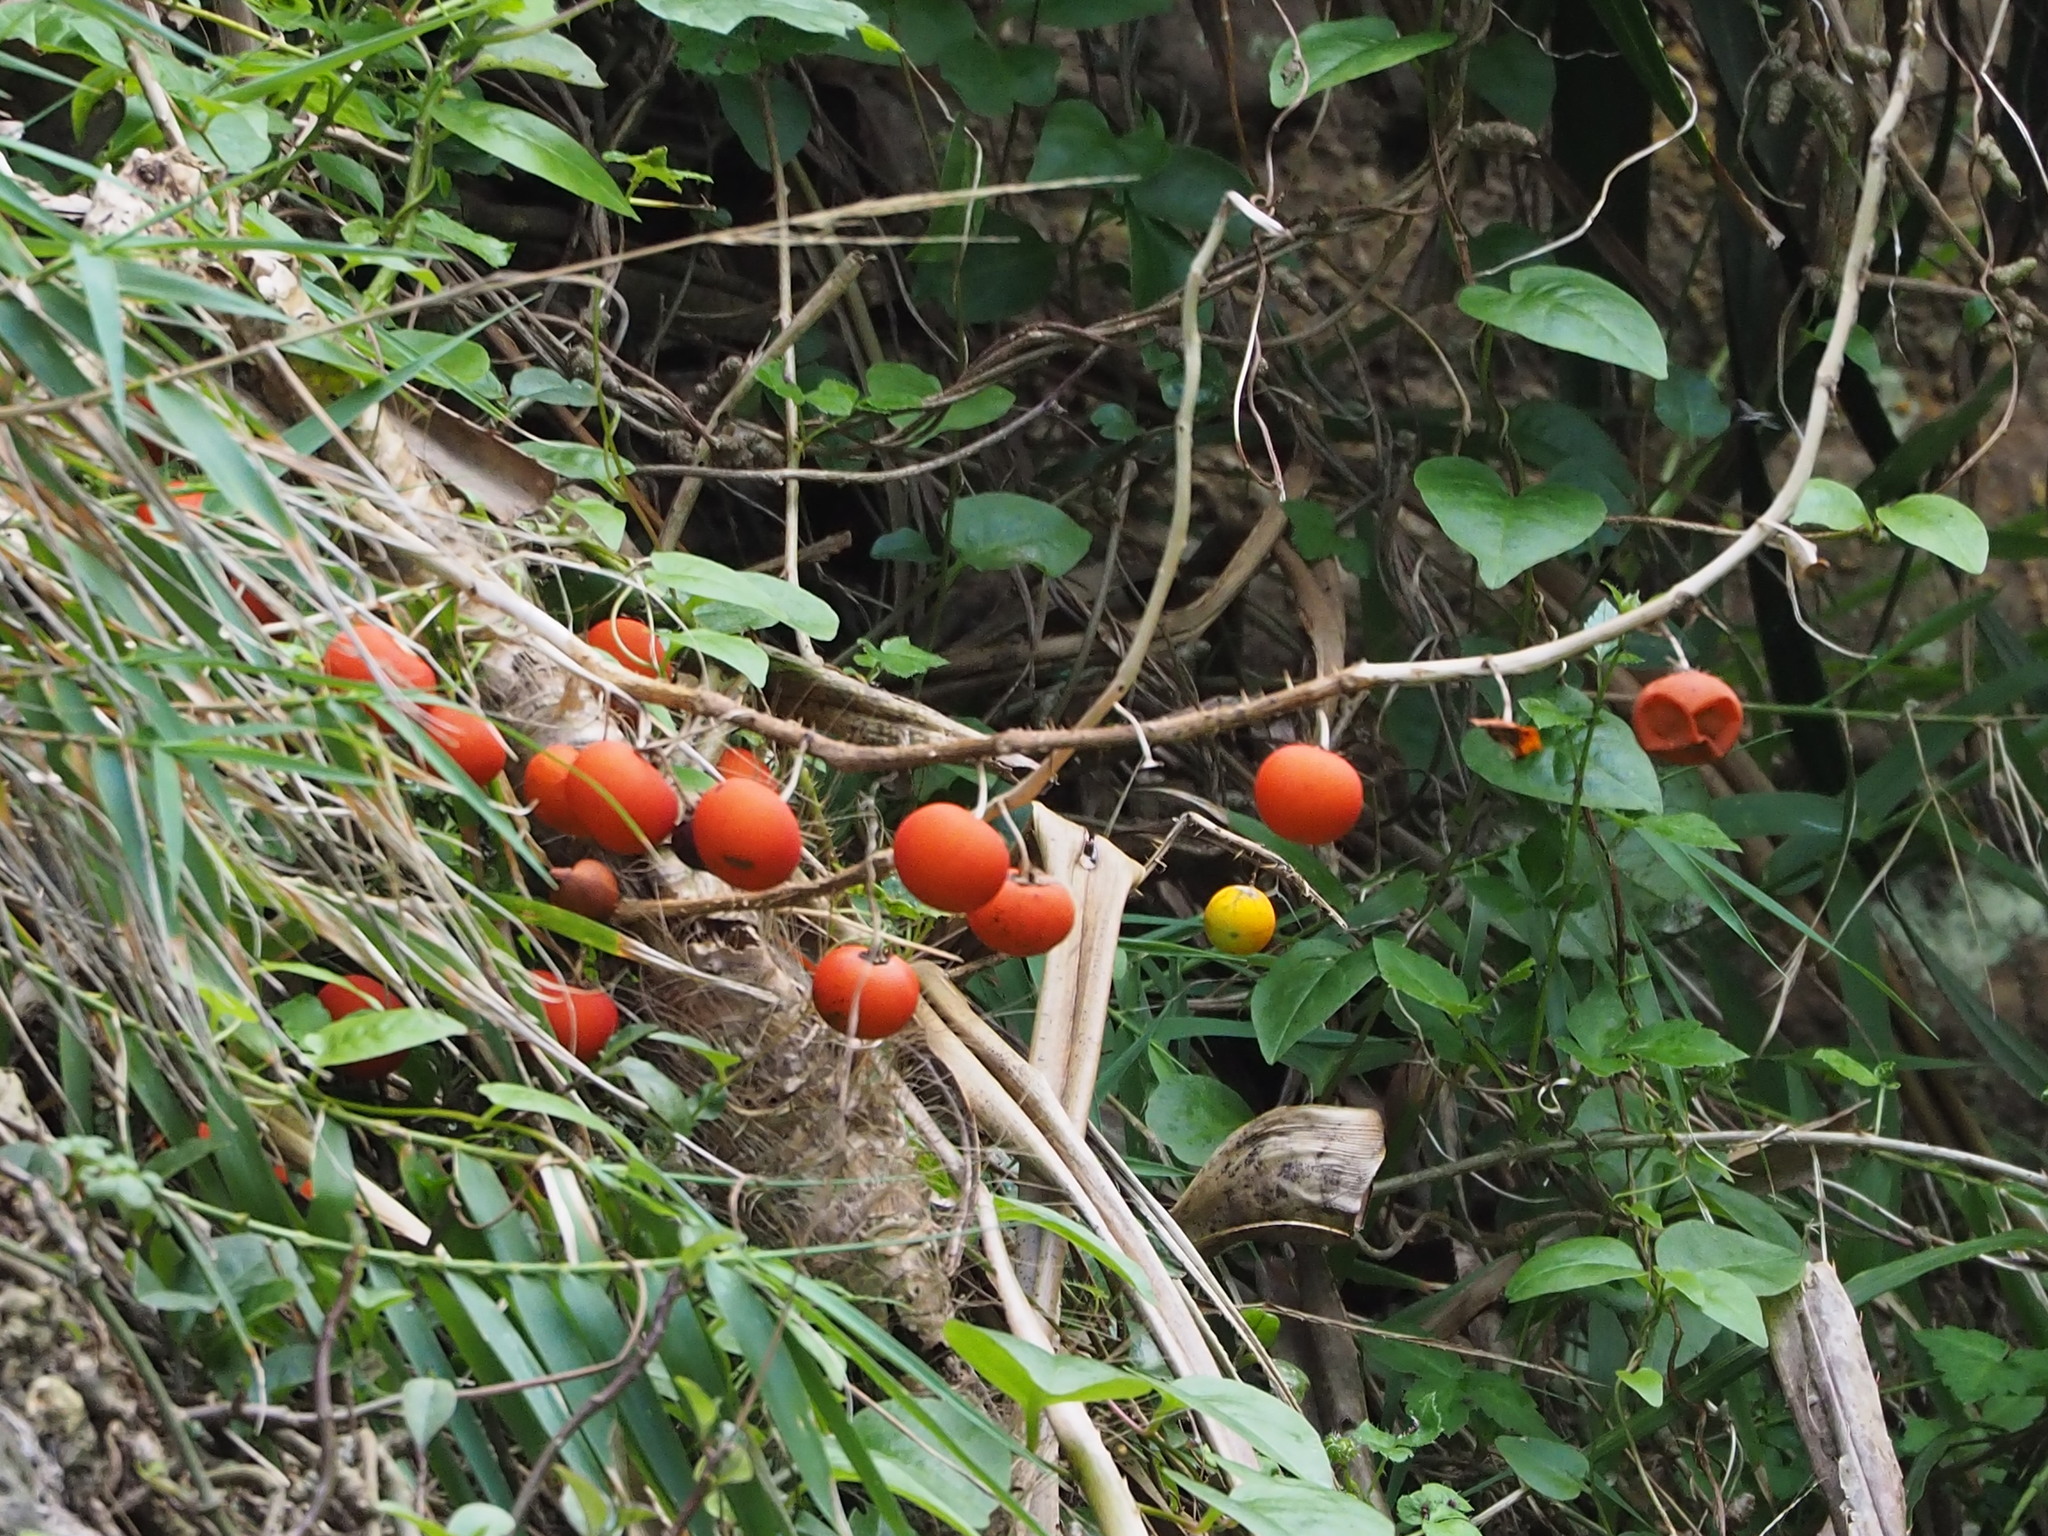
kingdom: Plantae
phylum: Tracheophyta
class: Magnoliopsida
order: Solanales
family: Solanaceae
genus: Solanum
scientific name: Solanum capsicoides
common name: Cockroach berry
